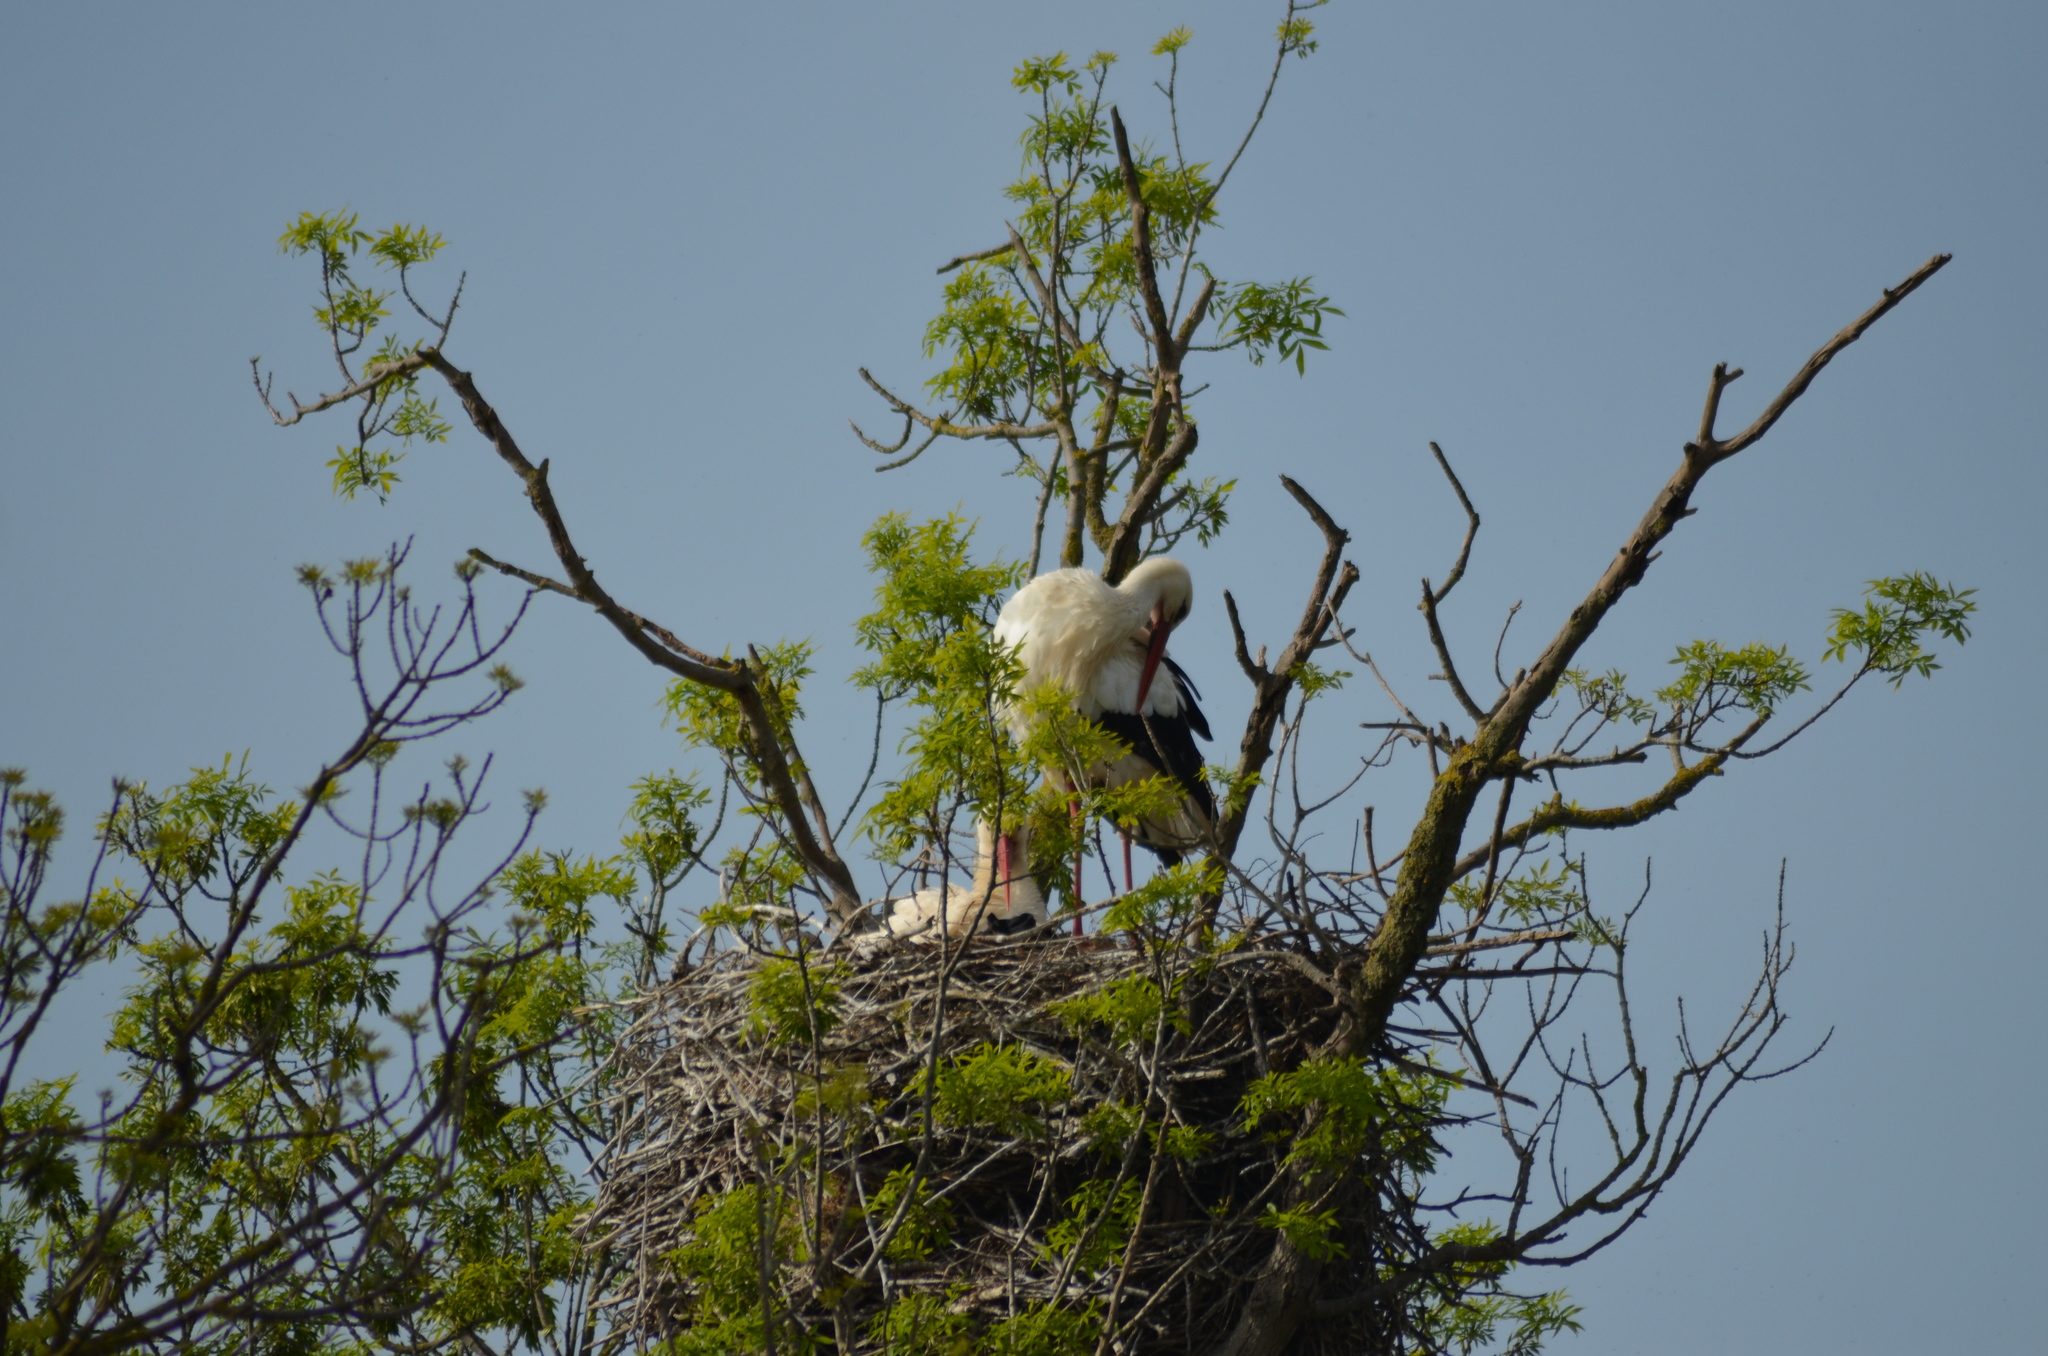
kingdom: Animalia
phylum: Chordata
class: Aves
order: Ciconiiformes
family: Ciconiidae
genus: Ciconia
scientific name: Ciconia ciconia
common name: White stork
